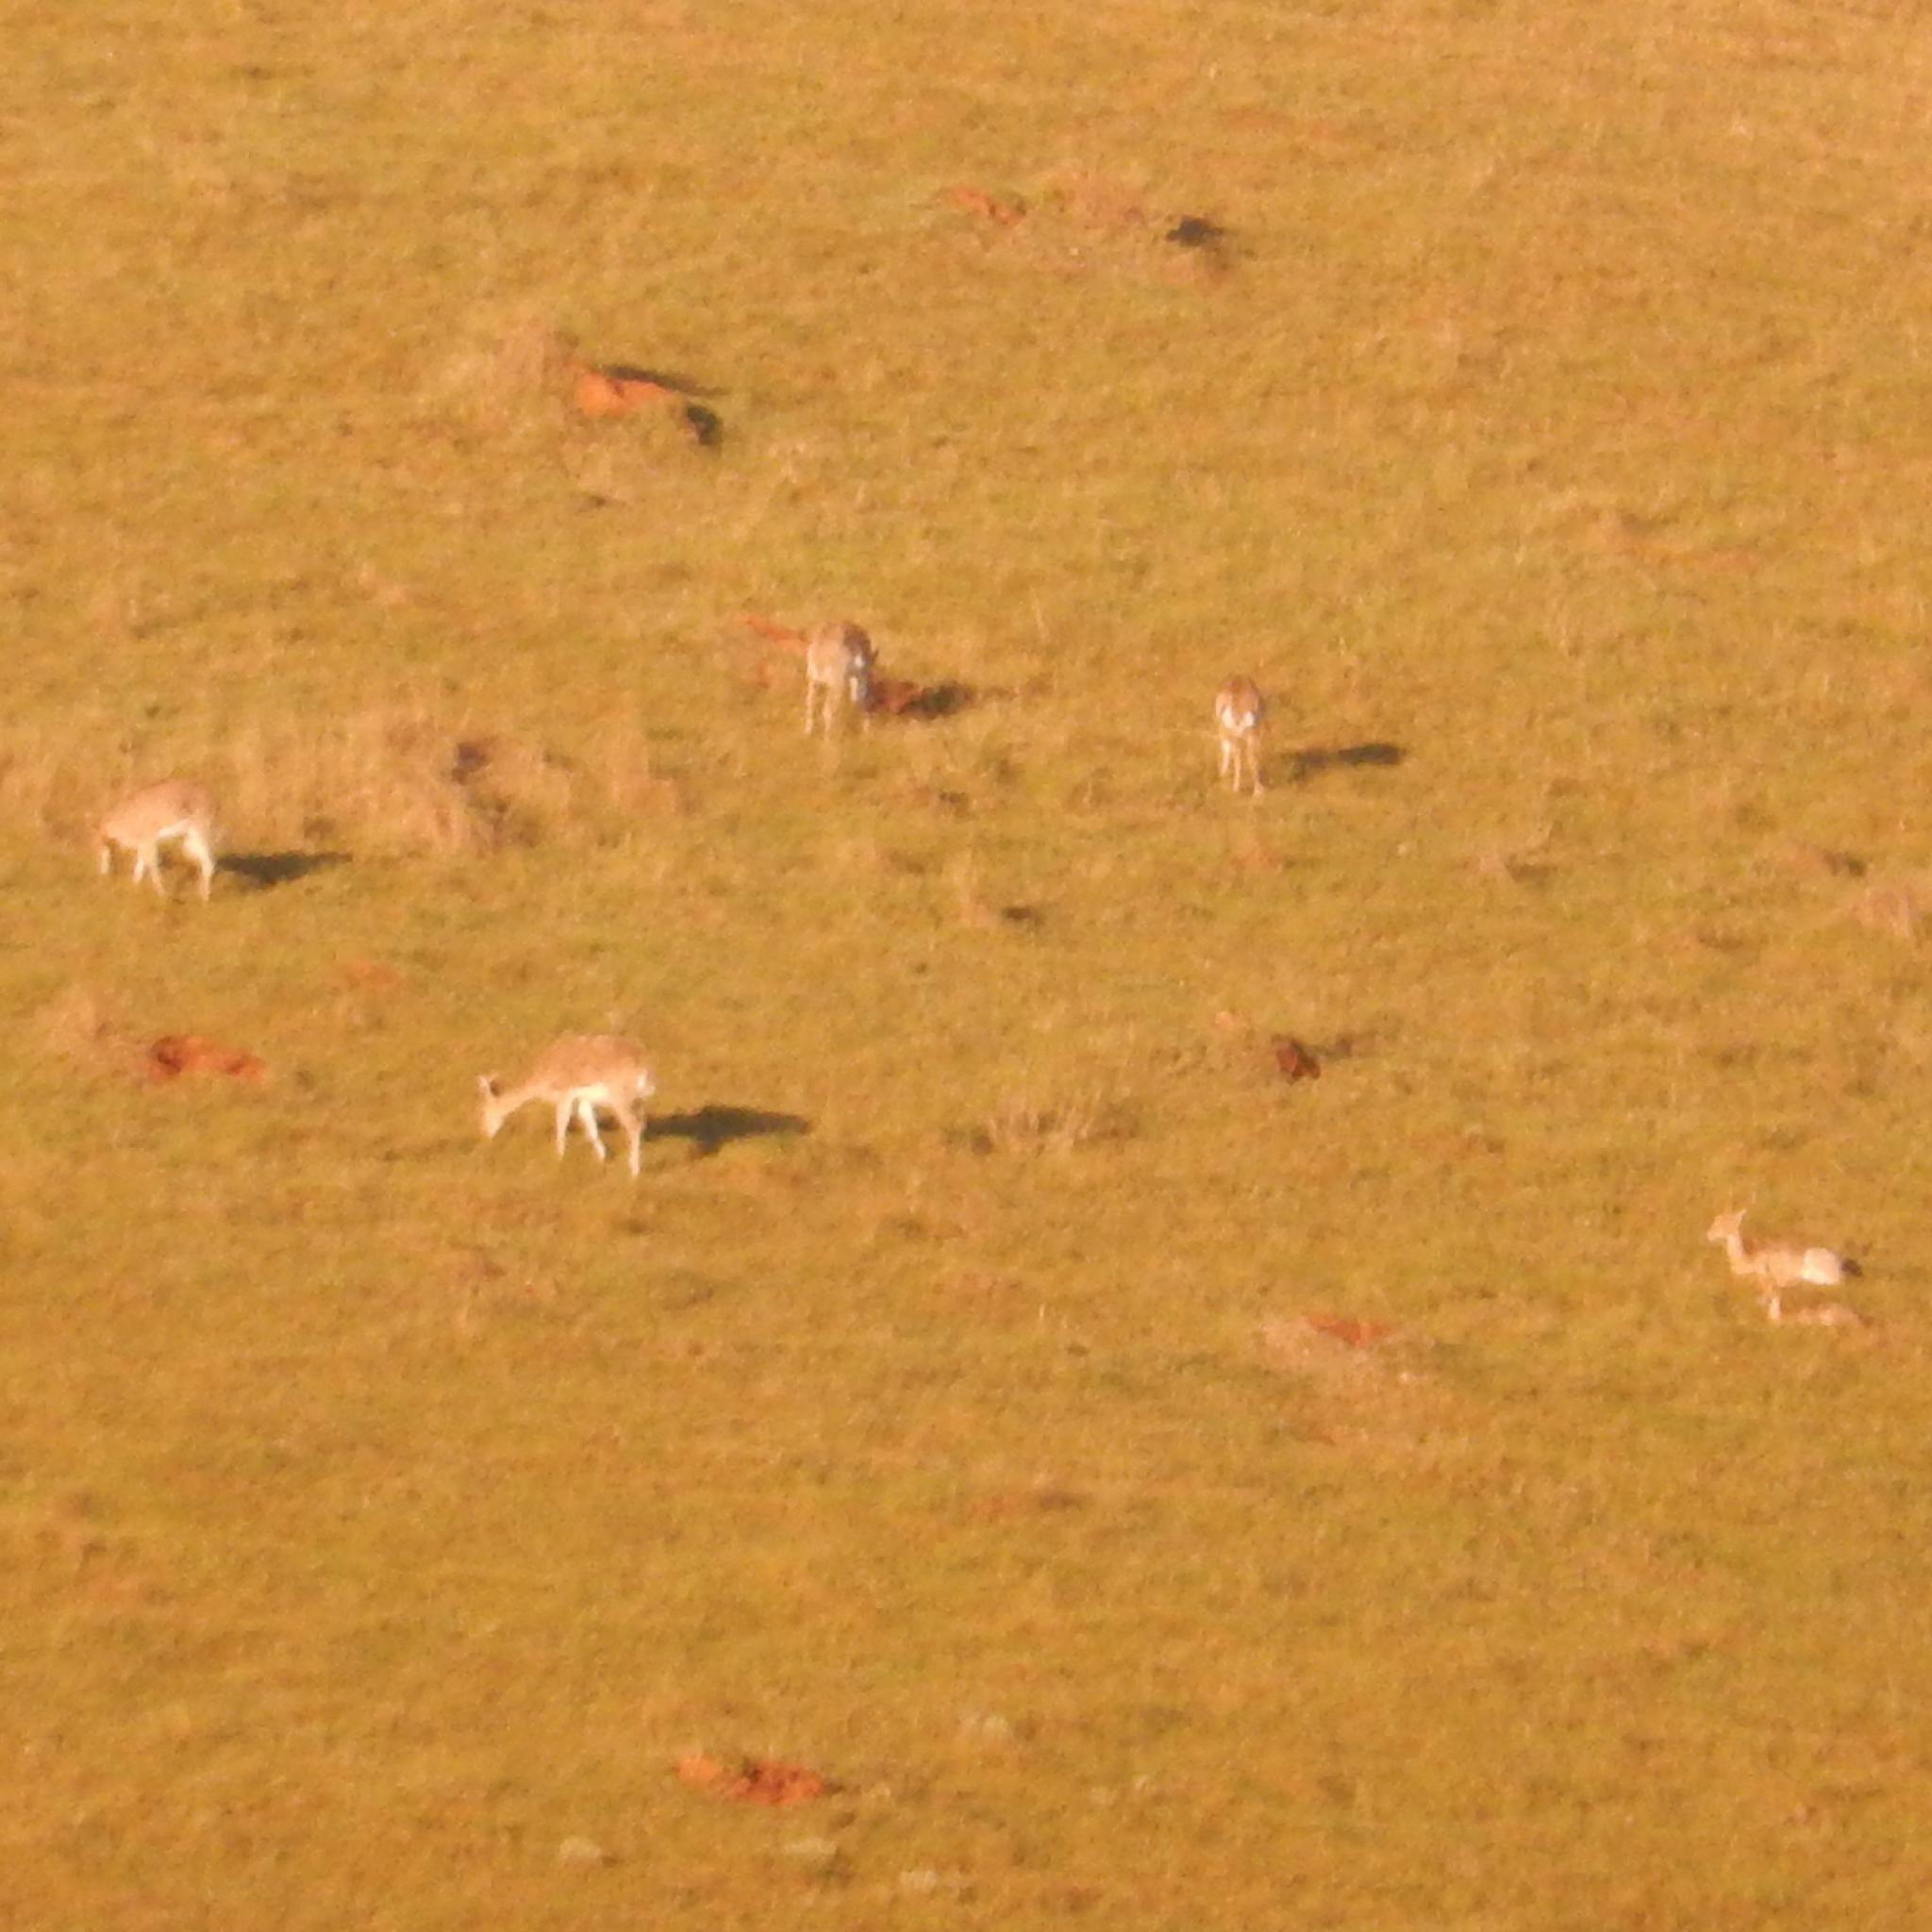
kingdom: Animalia
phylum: Chordata
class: Mammalia
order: Artiodactyla
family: Bovidae
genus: Redunca
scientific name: Redunca fulvorufula
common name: Mountain reedbuck
